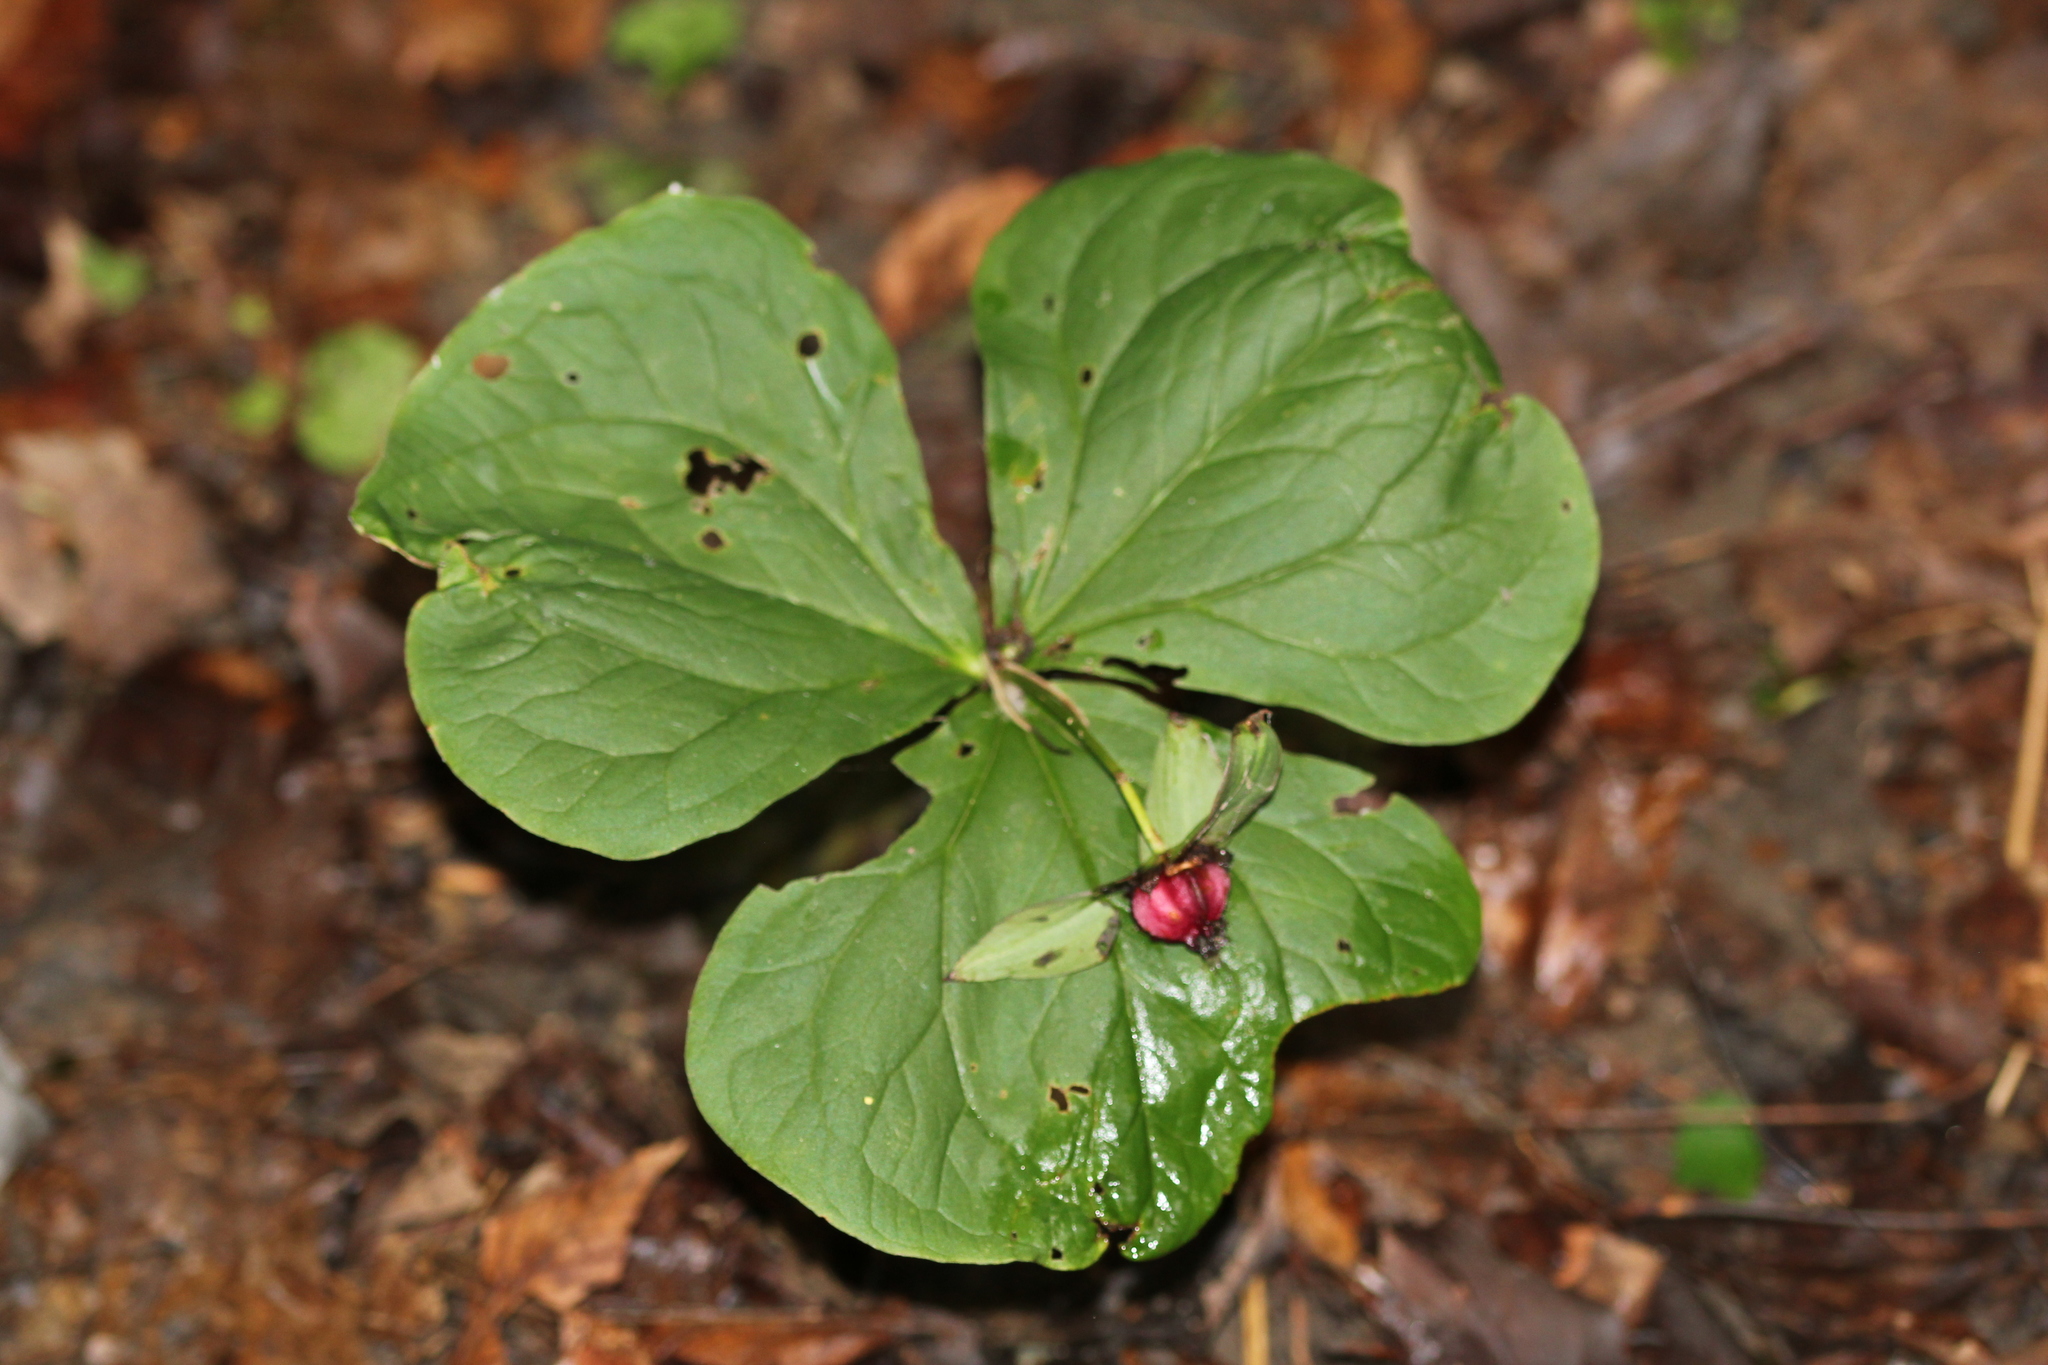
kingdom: Plantae
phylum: Tracheophyta
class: Liliopsida
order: Liliales
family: Melanthiaceae
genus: Trillium
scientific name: Trillium erectum
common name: Purple trillium
